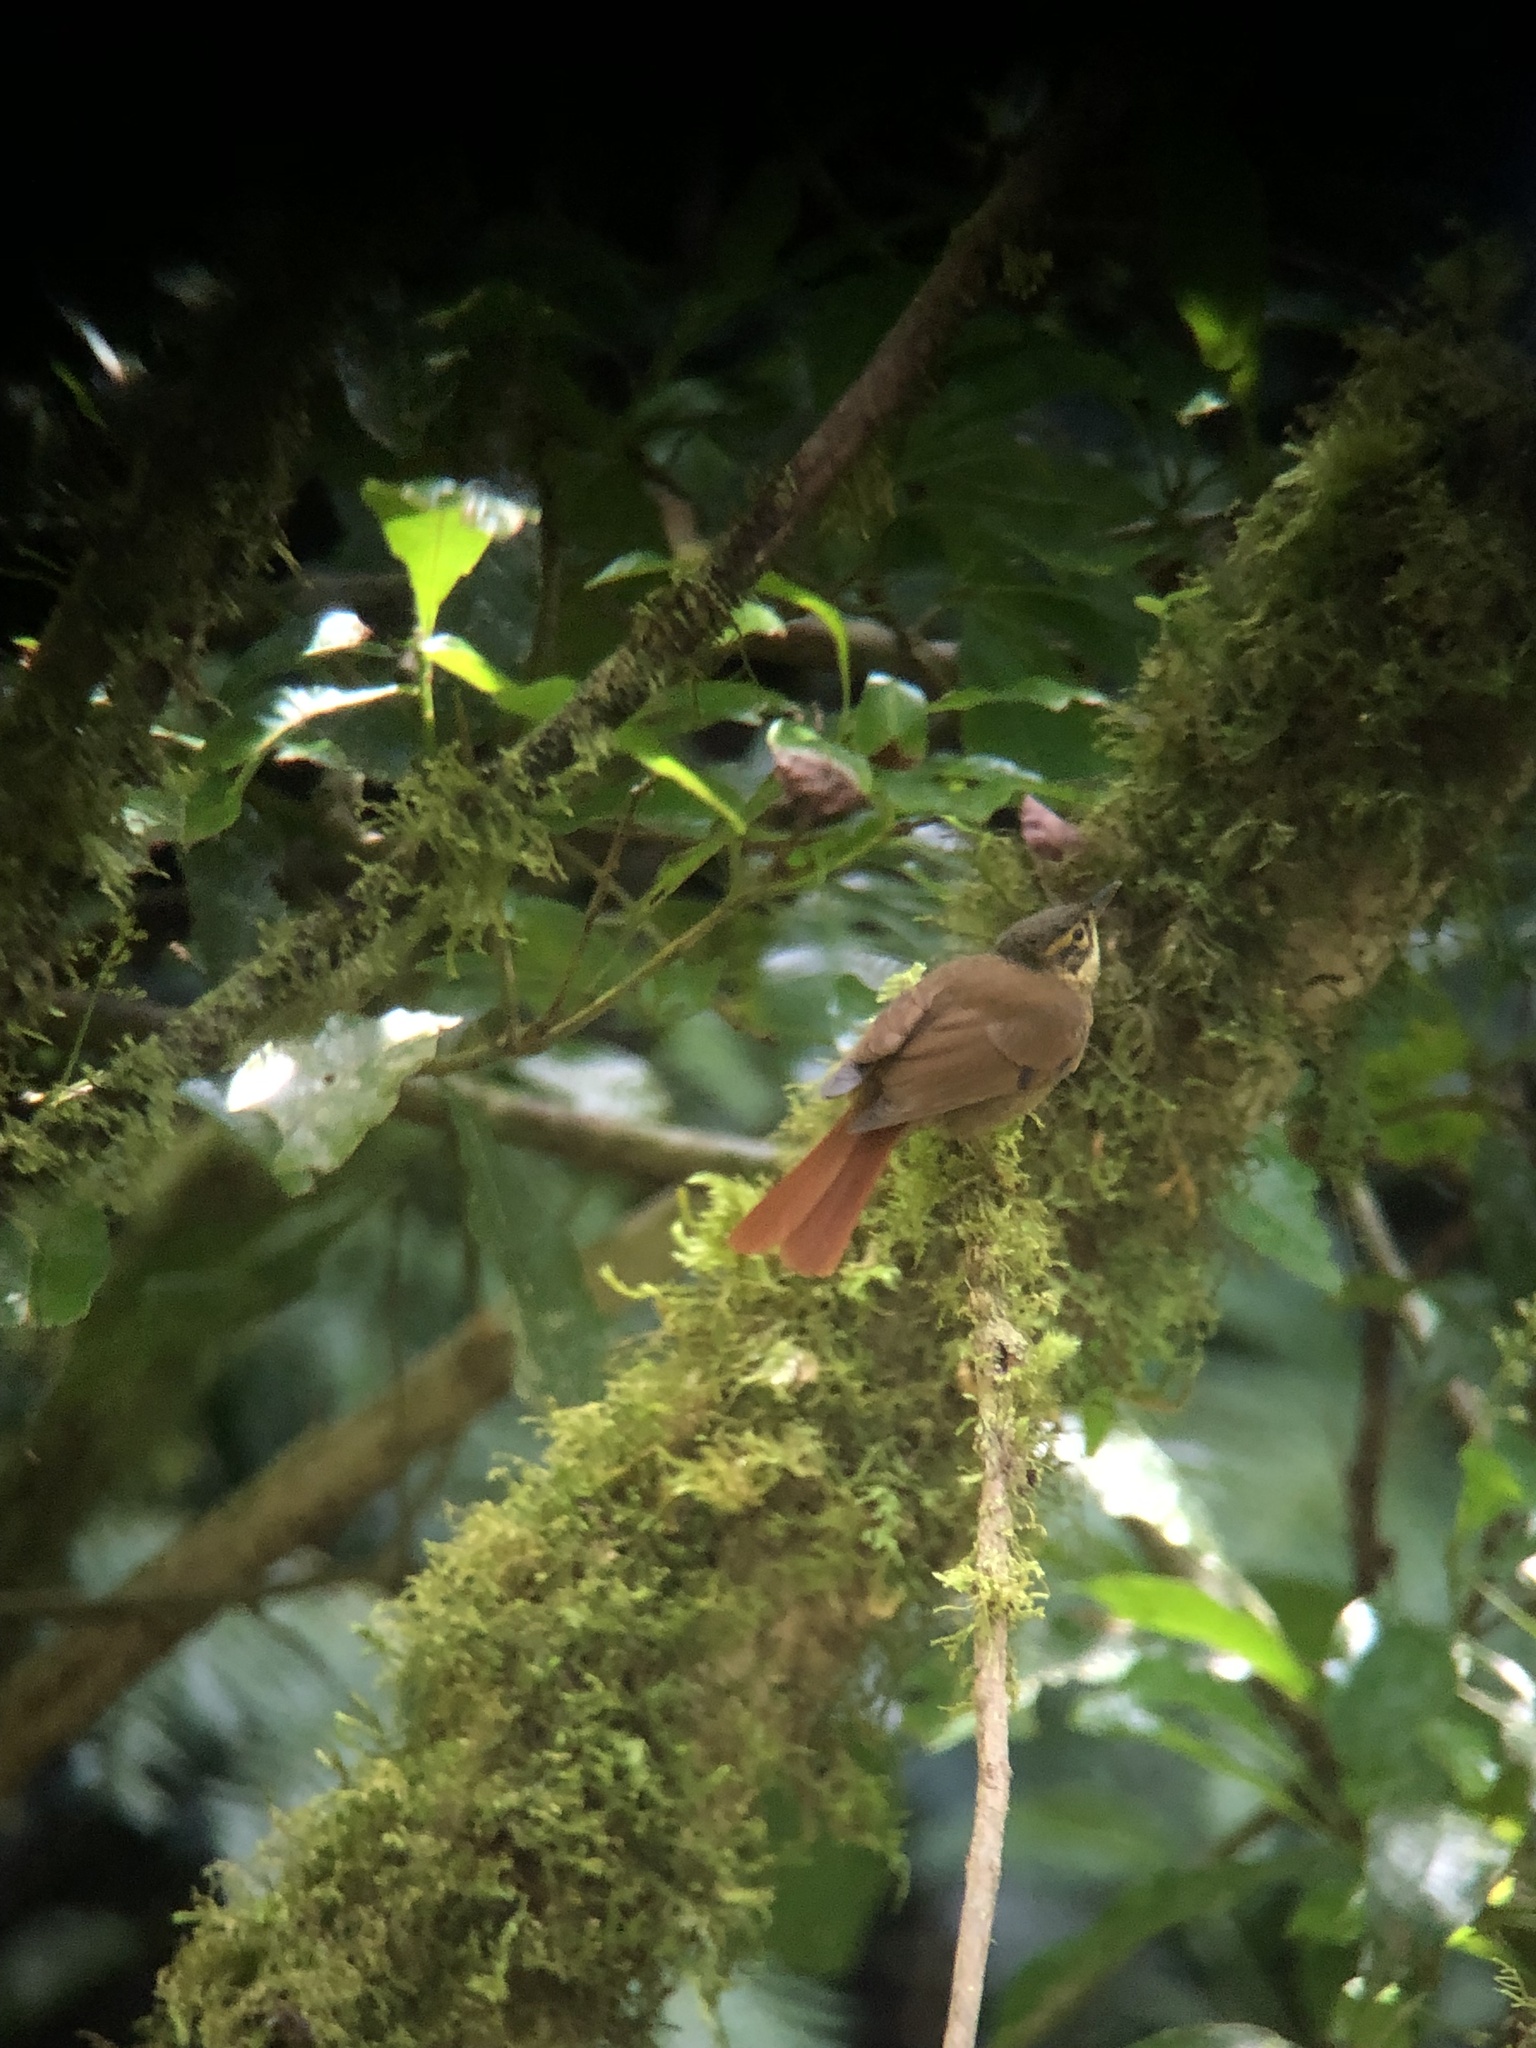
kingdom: Animalia
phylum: Chordata
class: Aves
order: Passeriformes
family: Furnariidae
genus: Anabacerthia
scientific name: Anabacerthia variegaticeps
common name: Scaly-throated foliage-gleaner
